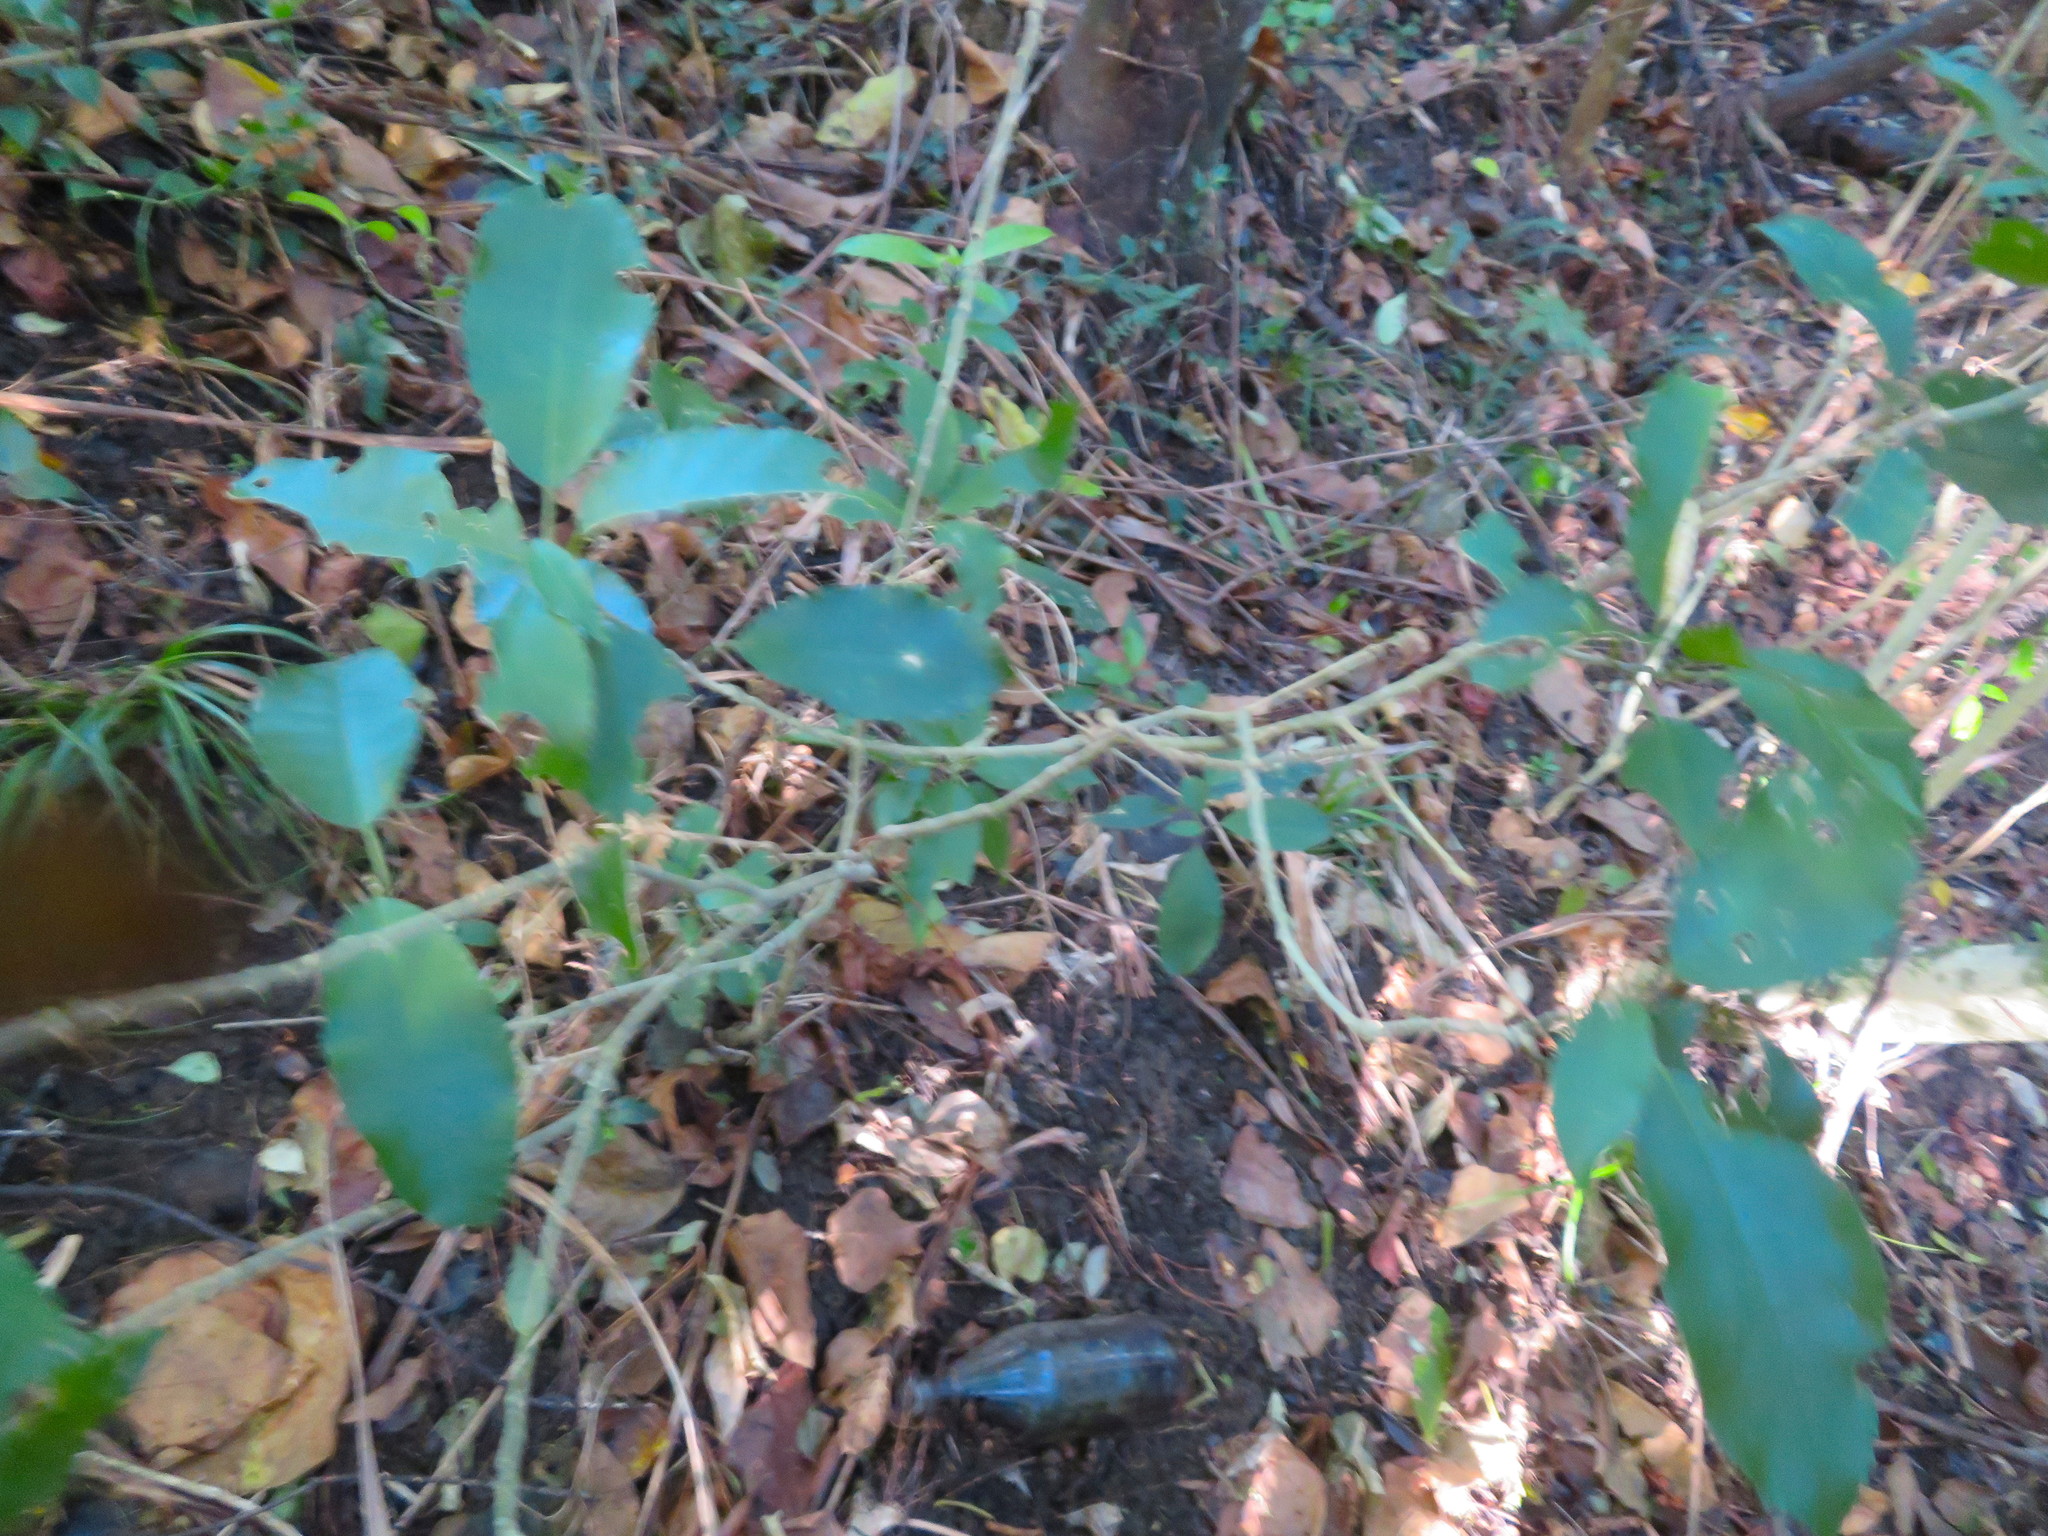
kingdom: Plantae
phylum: Tracheophyta
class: Magnoliopsida
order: Malpighiales
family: Violaceae
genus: Melicytus
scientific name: Melicytus ramiflorus
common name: Mahoe
